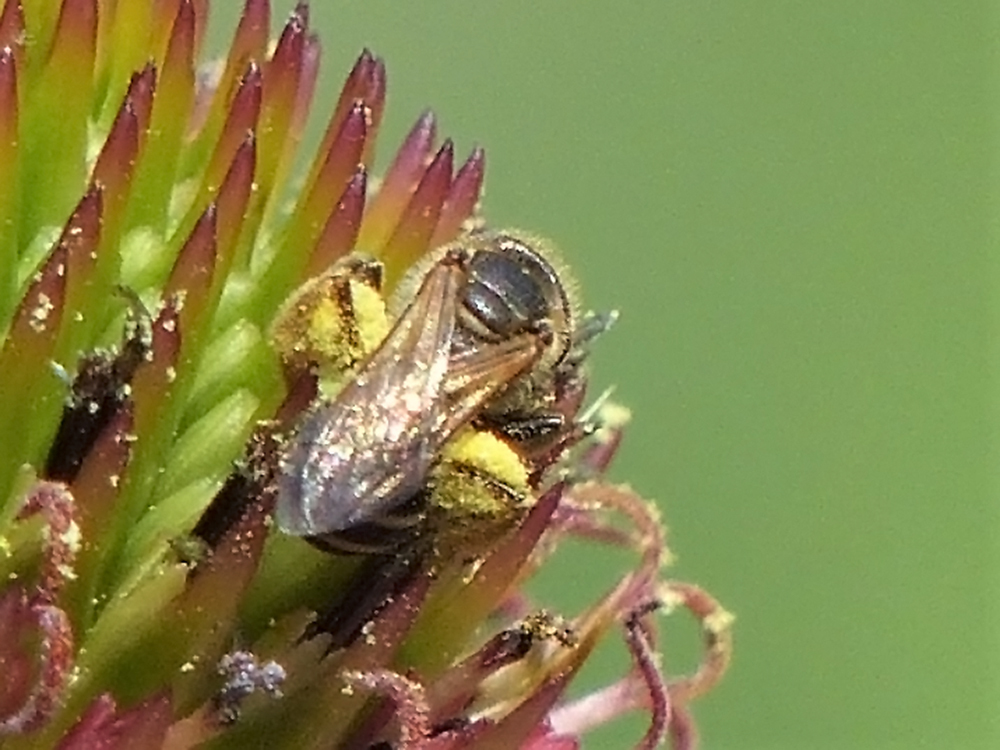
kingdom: Animalia
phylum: Arthropoda
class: Insecta
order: Hymenoptera
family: Halictidae
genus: Halictus
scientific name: Halictus ligatus
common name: Ligated furrow bee
